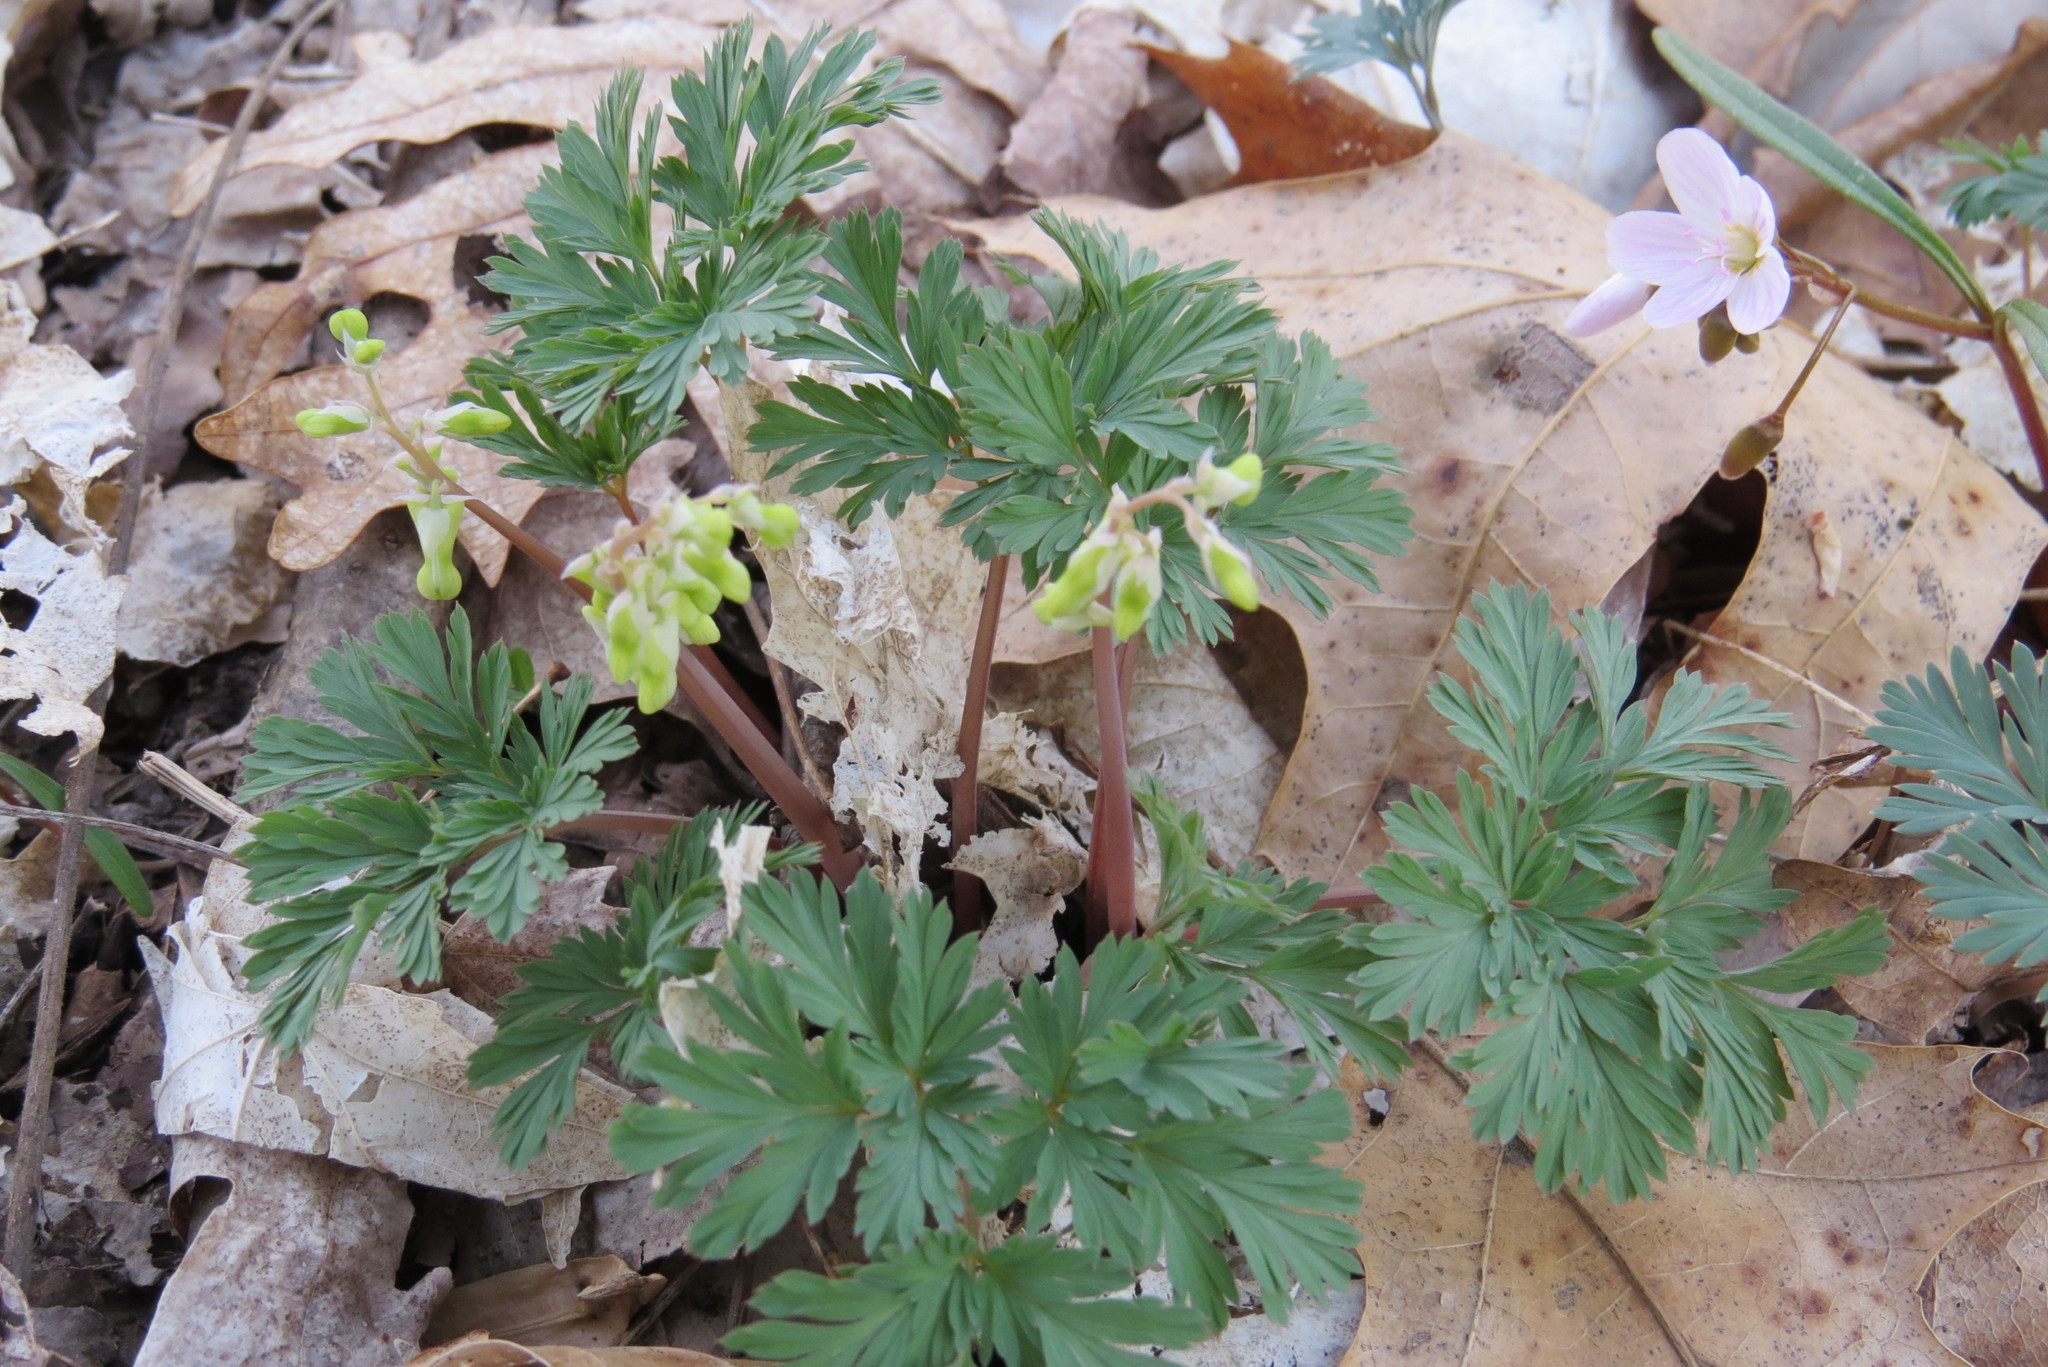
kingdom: Plantae
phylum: Tracheophyta
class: Magnoliopsida
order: Ranunculales
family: Papaveraceae
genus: Dicentra
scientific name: Dicentra
